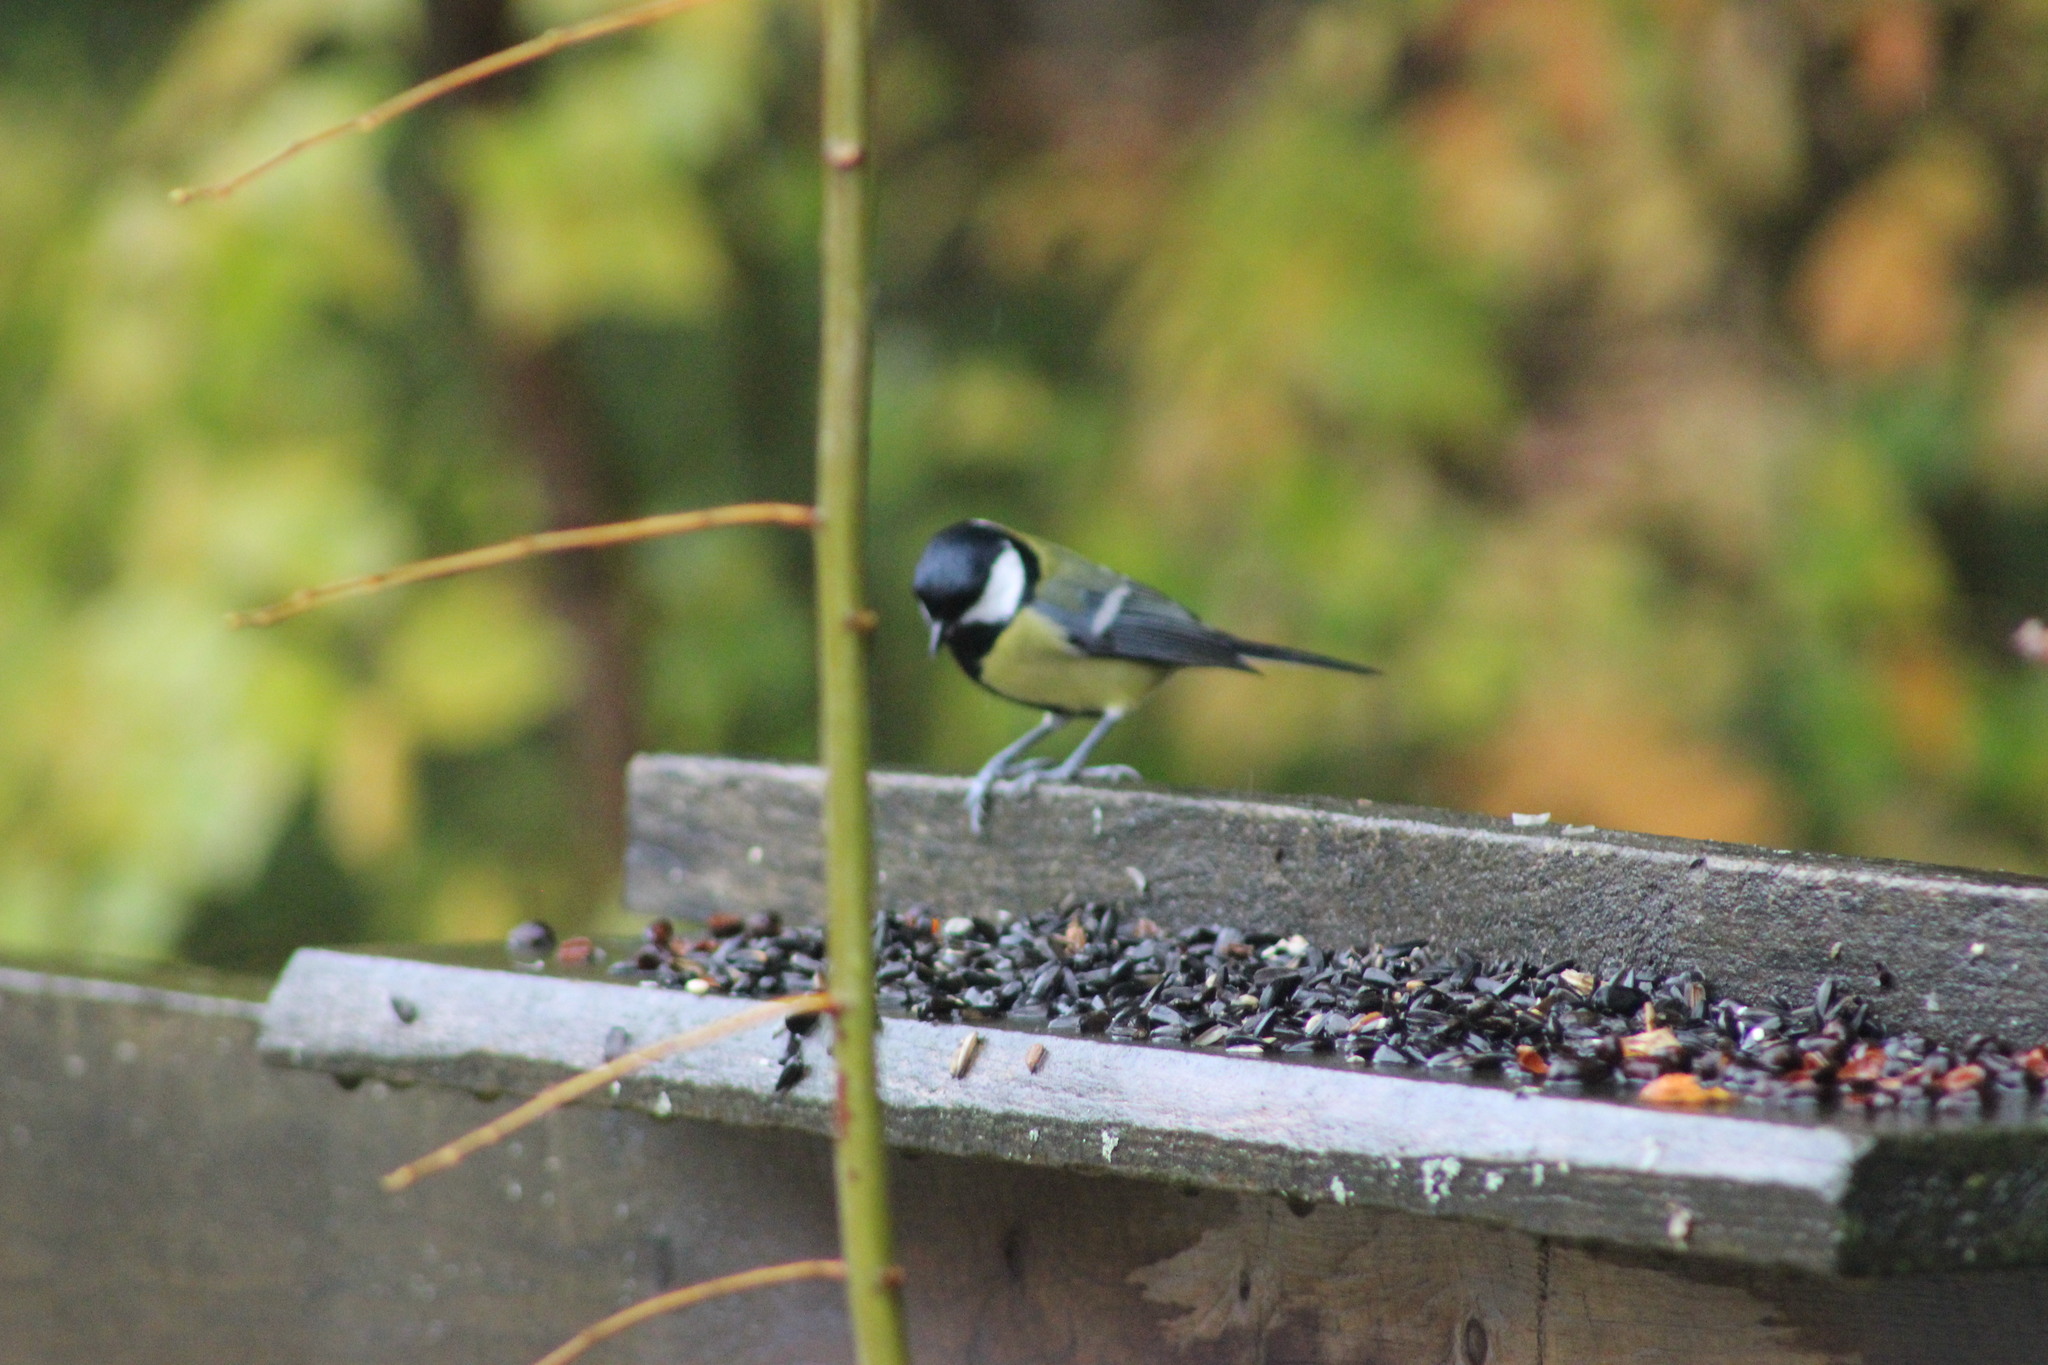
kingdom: Animalia
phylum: Chordata
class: Aves
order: Passeriformes
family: Paridae
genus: Parus
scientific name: Parus major
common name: Great tit
